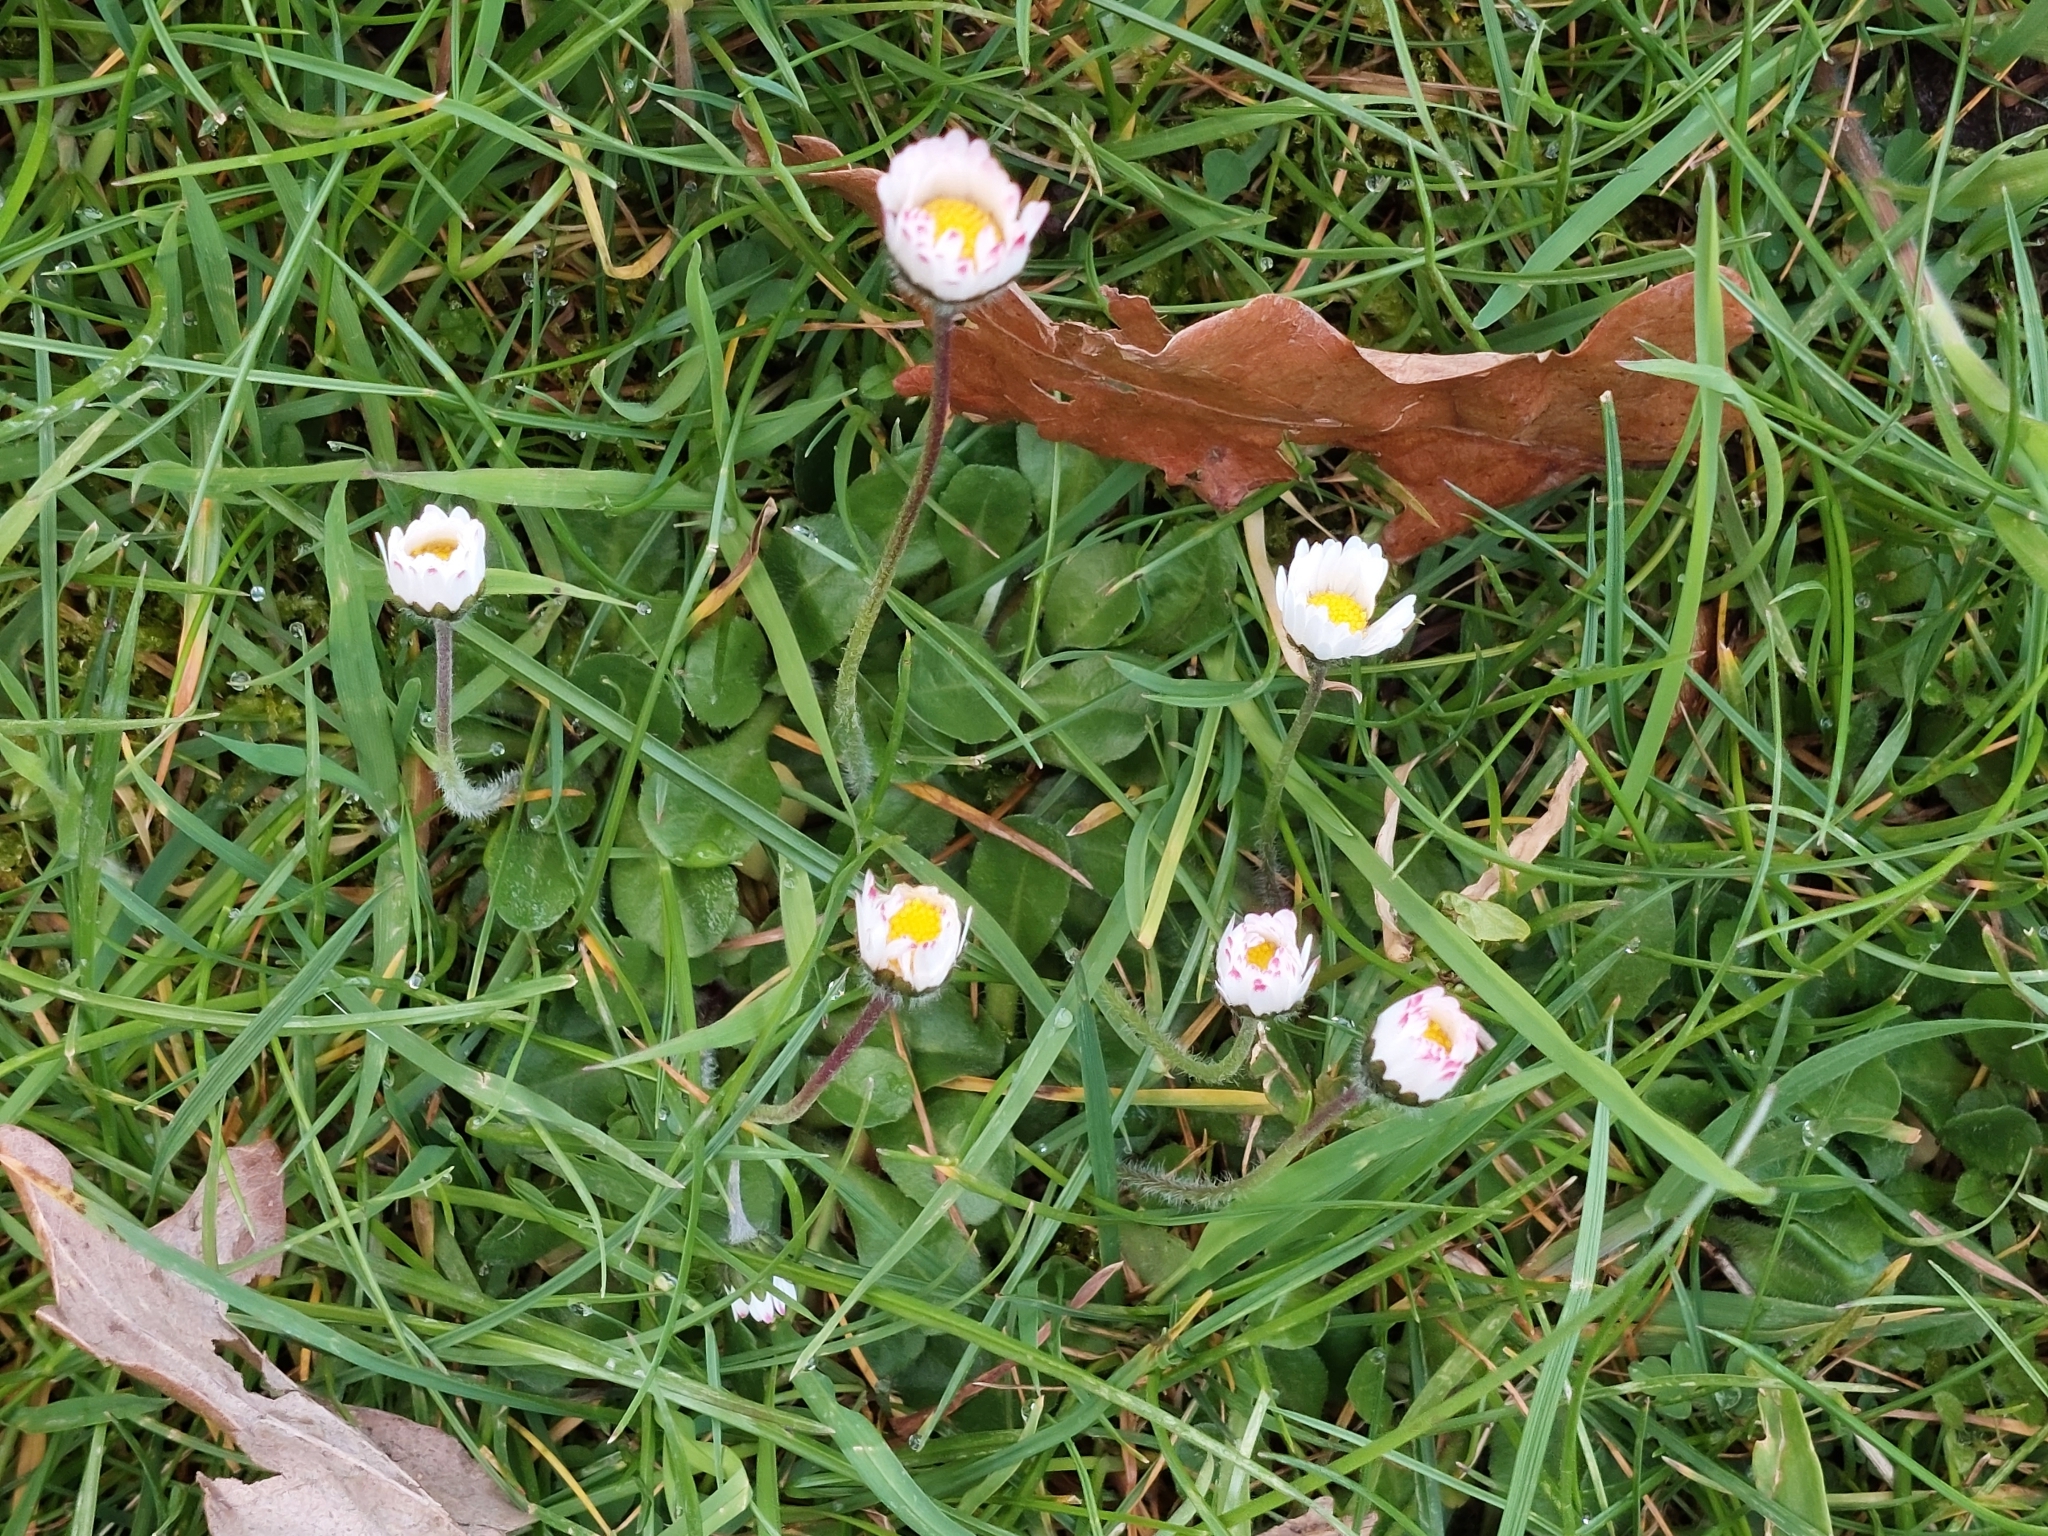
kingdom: Plantae
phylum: Tracheophyta
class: Magnoliopsida
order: Asterales
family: Asteraceae
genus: Bellis
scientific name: Bellis perennis
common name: Lawndaisy
